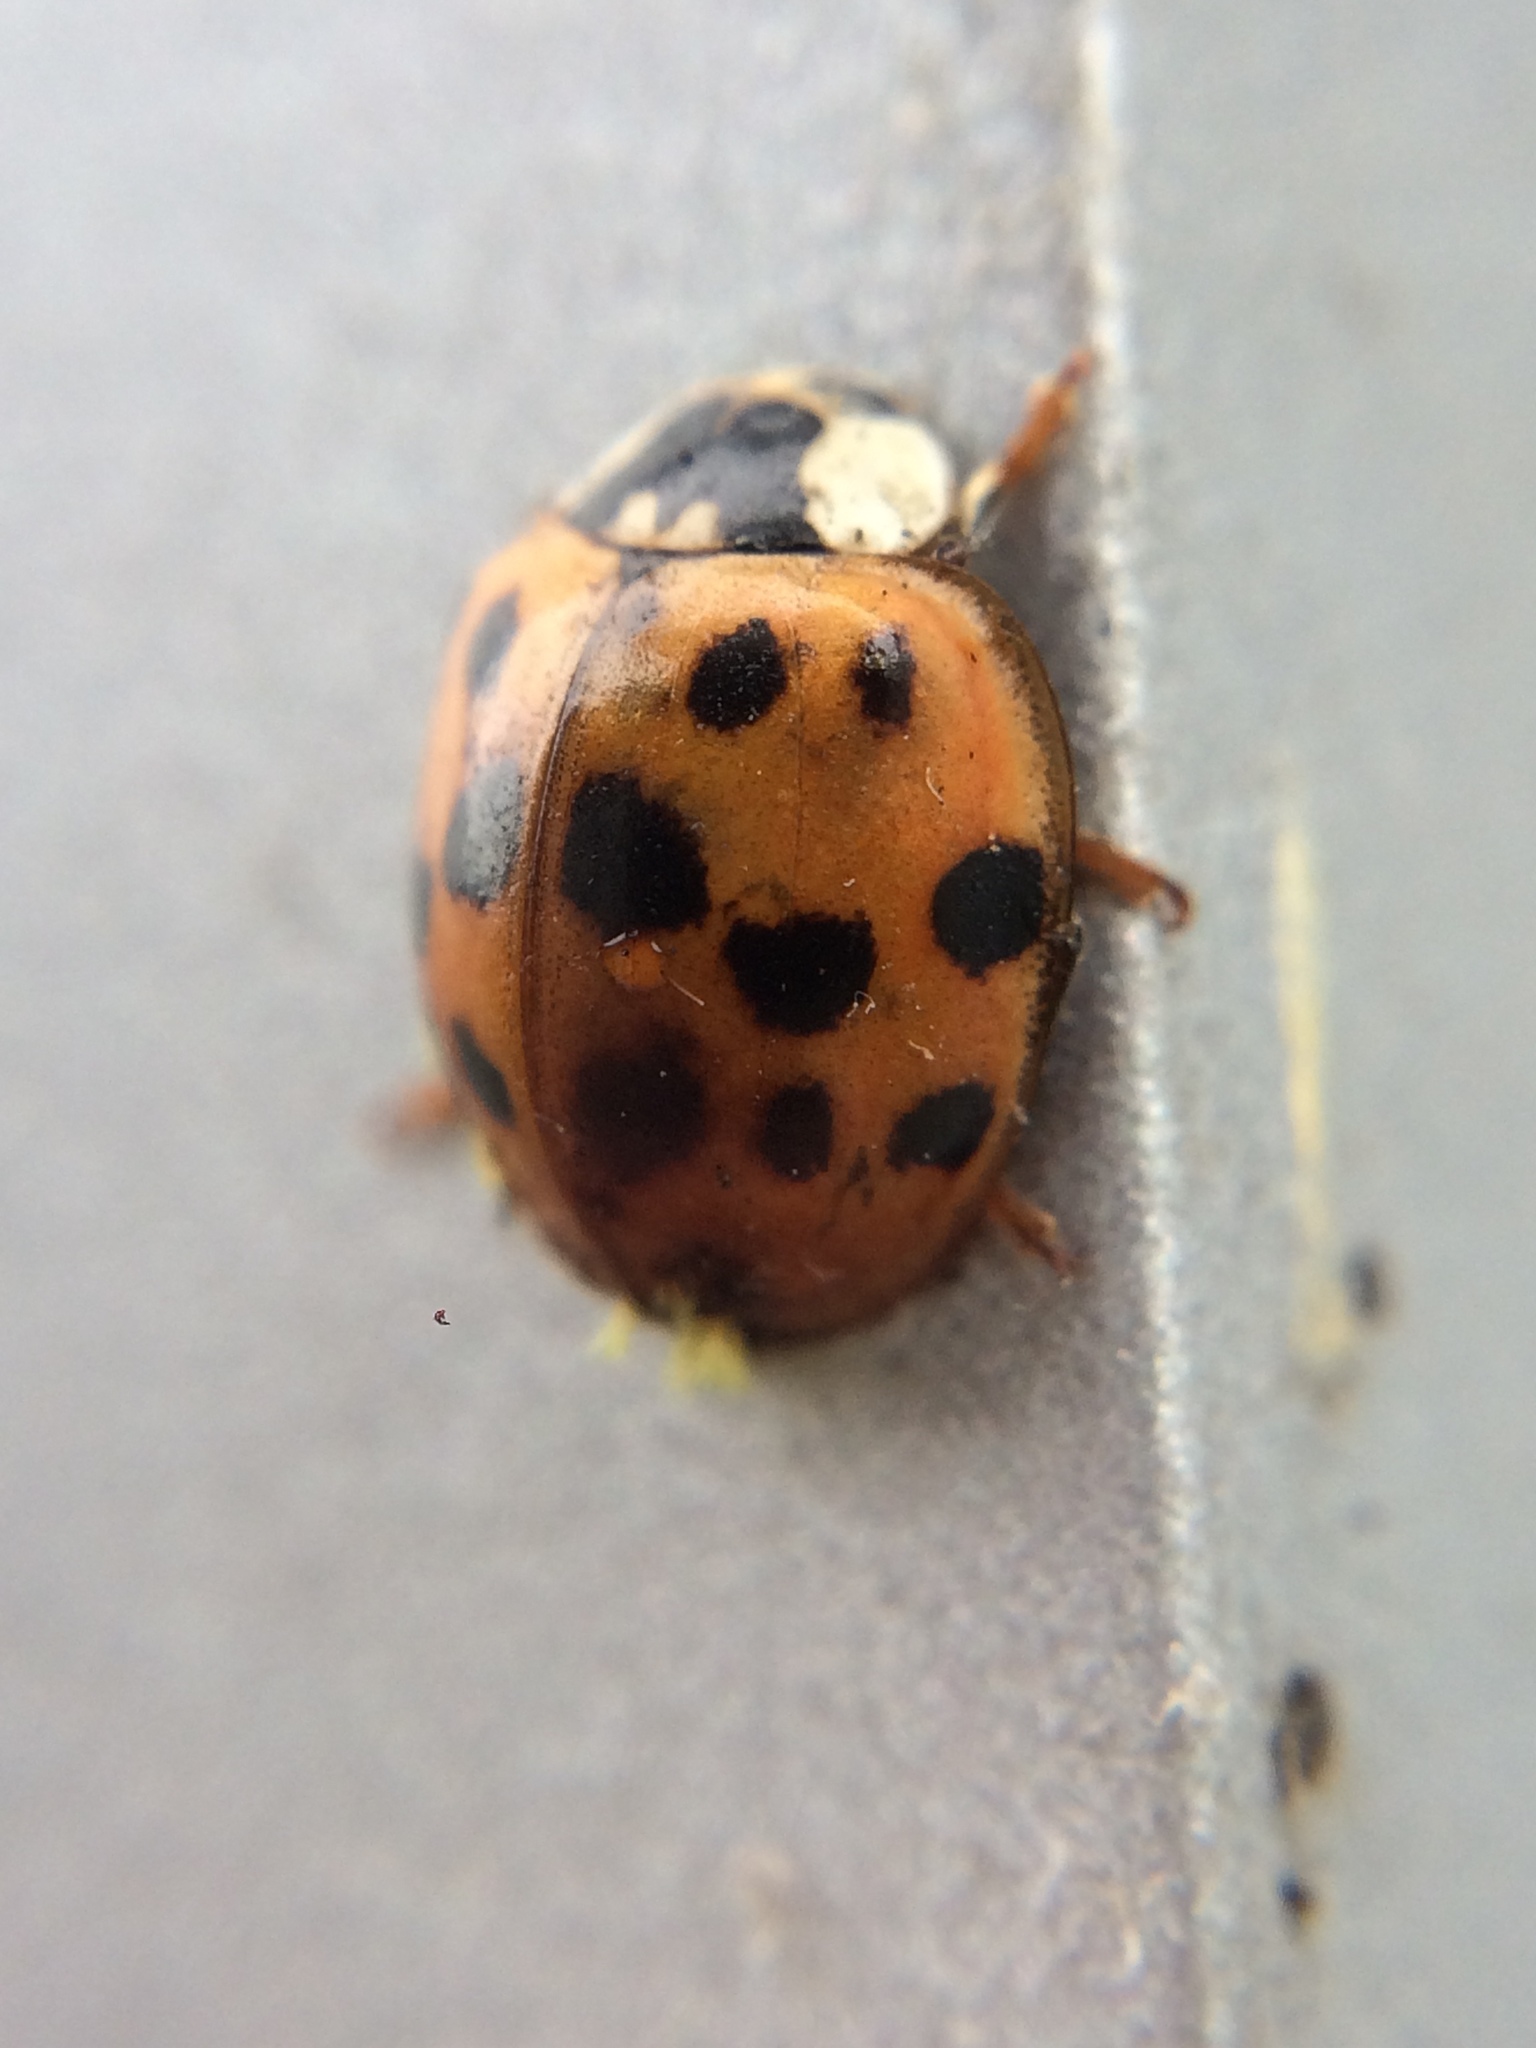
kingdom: Animalia
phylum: Arthropoda
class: Insecta
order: Coleoptera
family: Coccinellidae
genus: Harmonia
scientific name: Harmonia axyridis
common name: Harlequin ladybird
